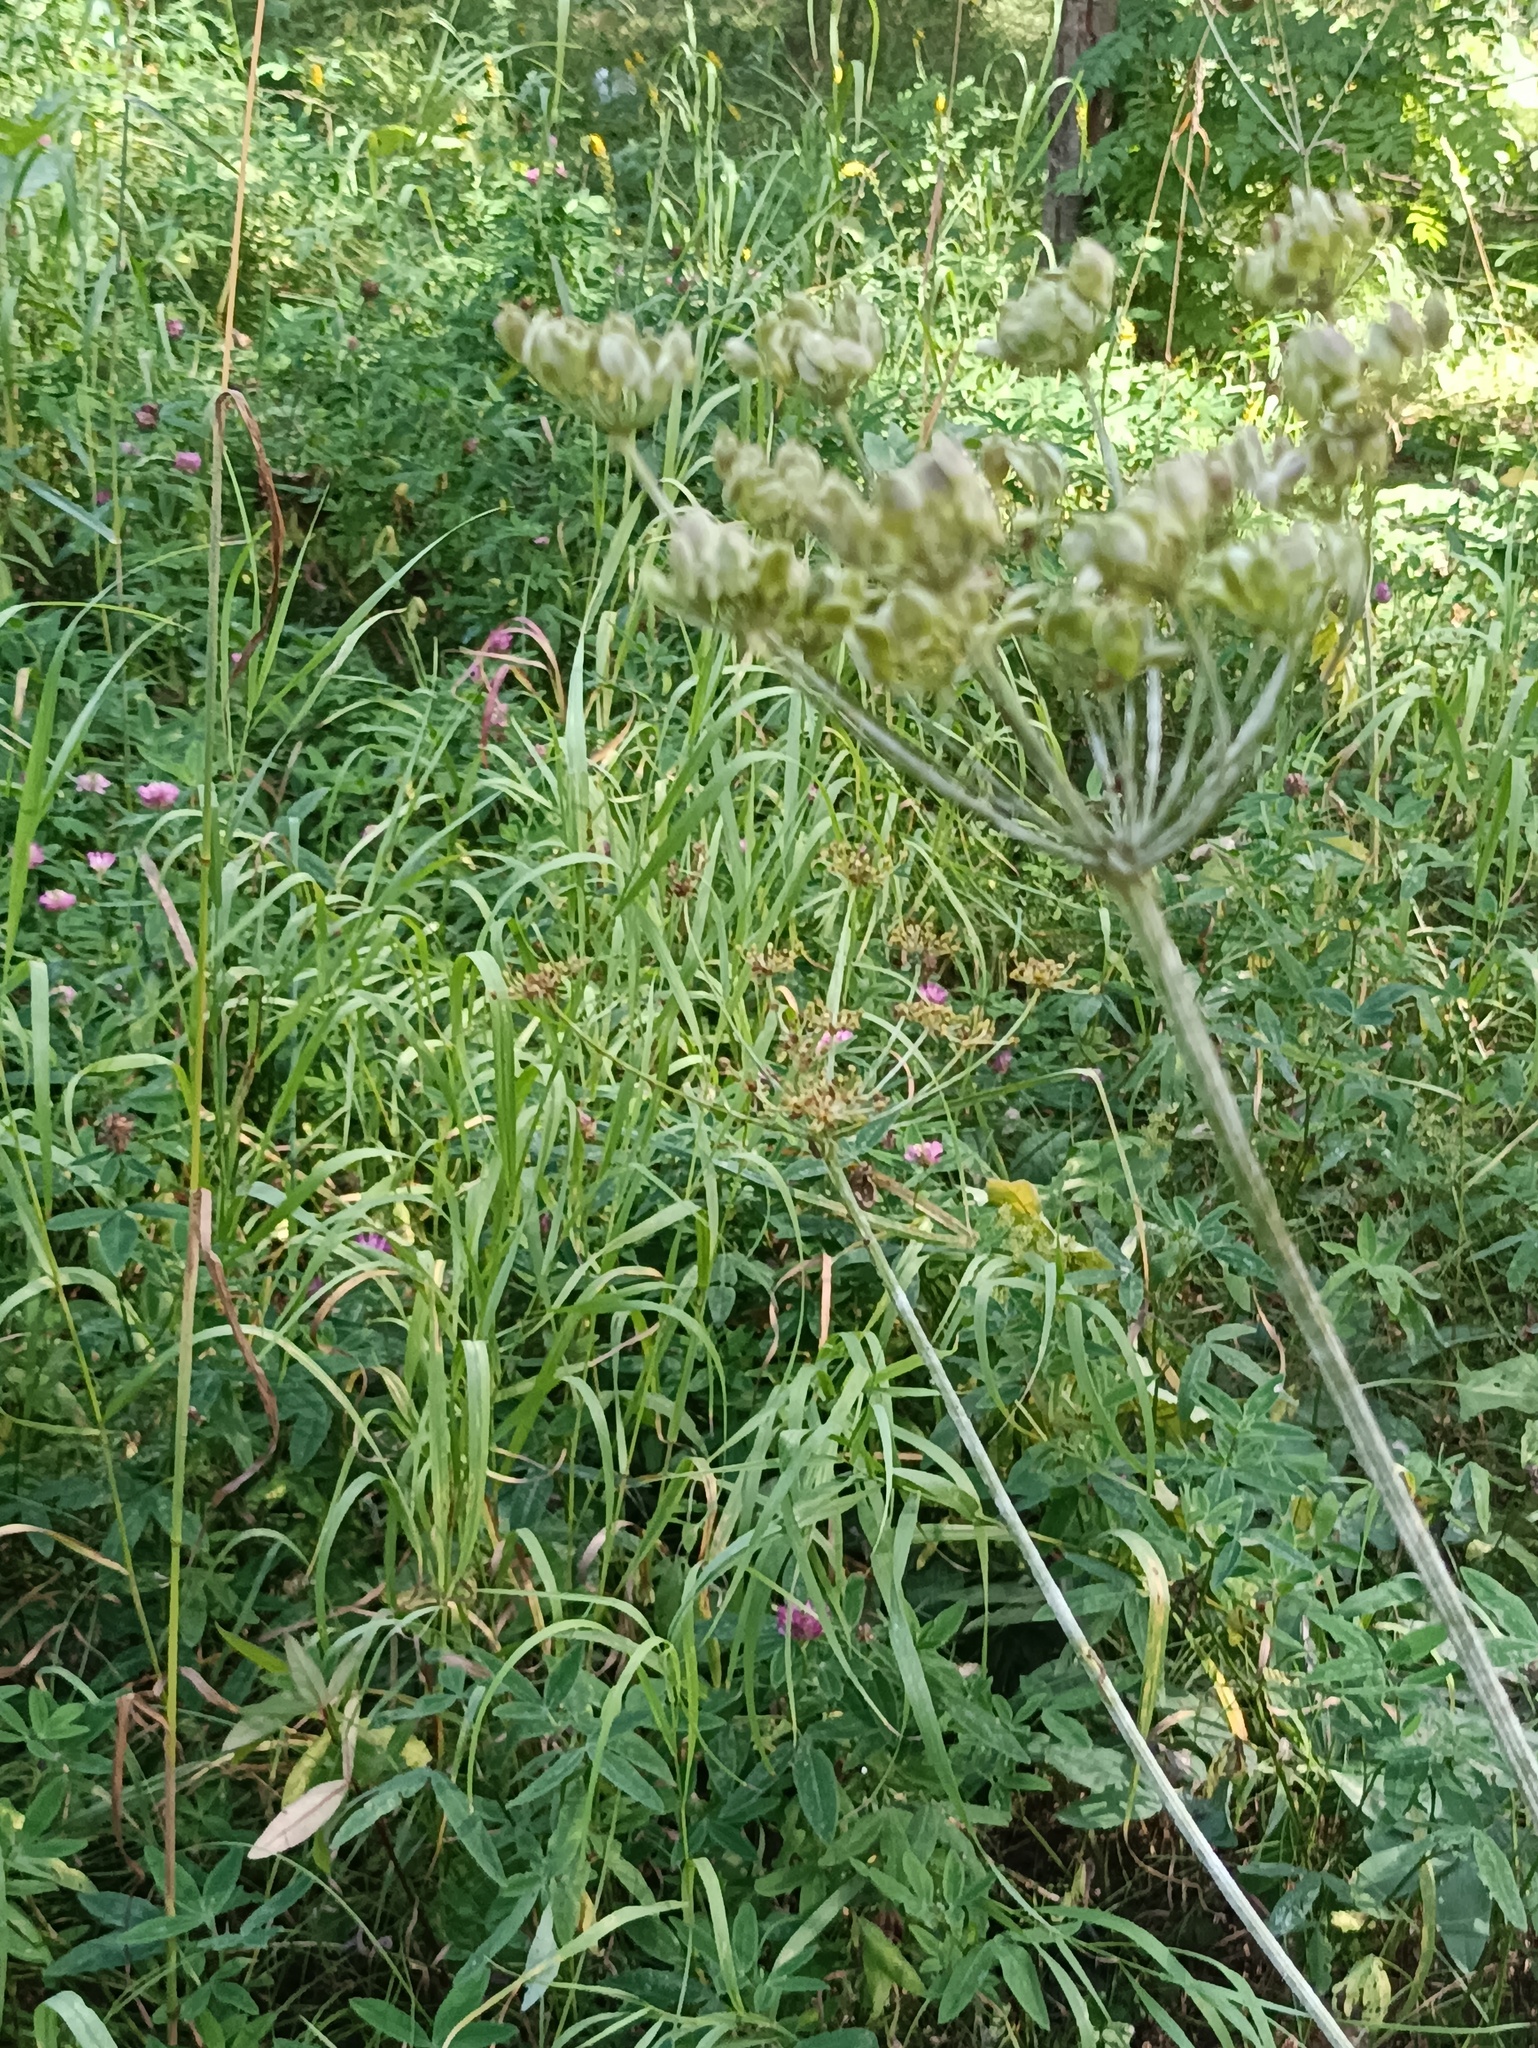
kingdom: Plantae
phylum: Tracheophyta
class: Magnoliopsida
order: Apiales
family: Apiaceae
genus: Heracleum
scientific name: Heracleum sphondylium
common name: Hogweed
